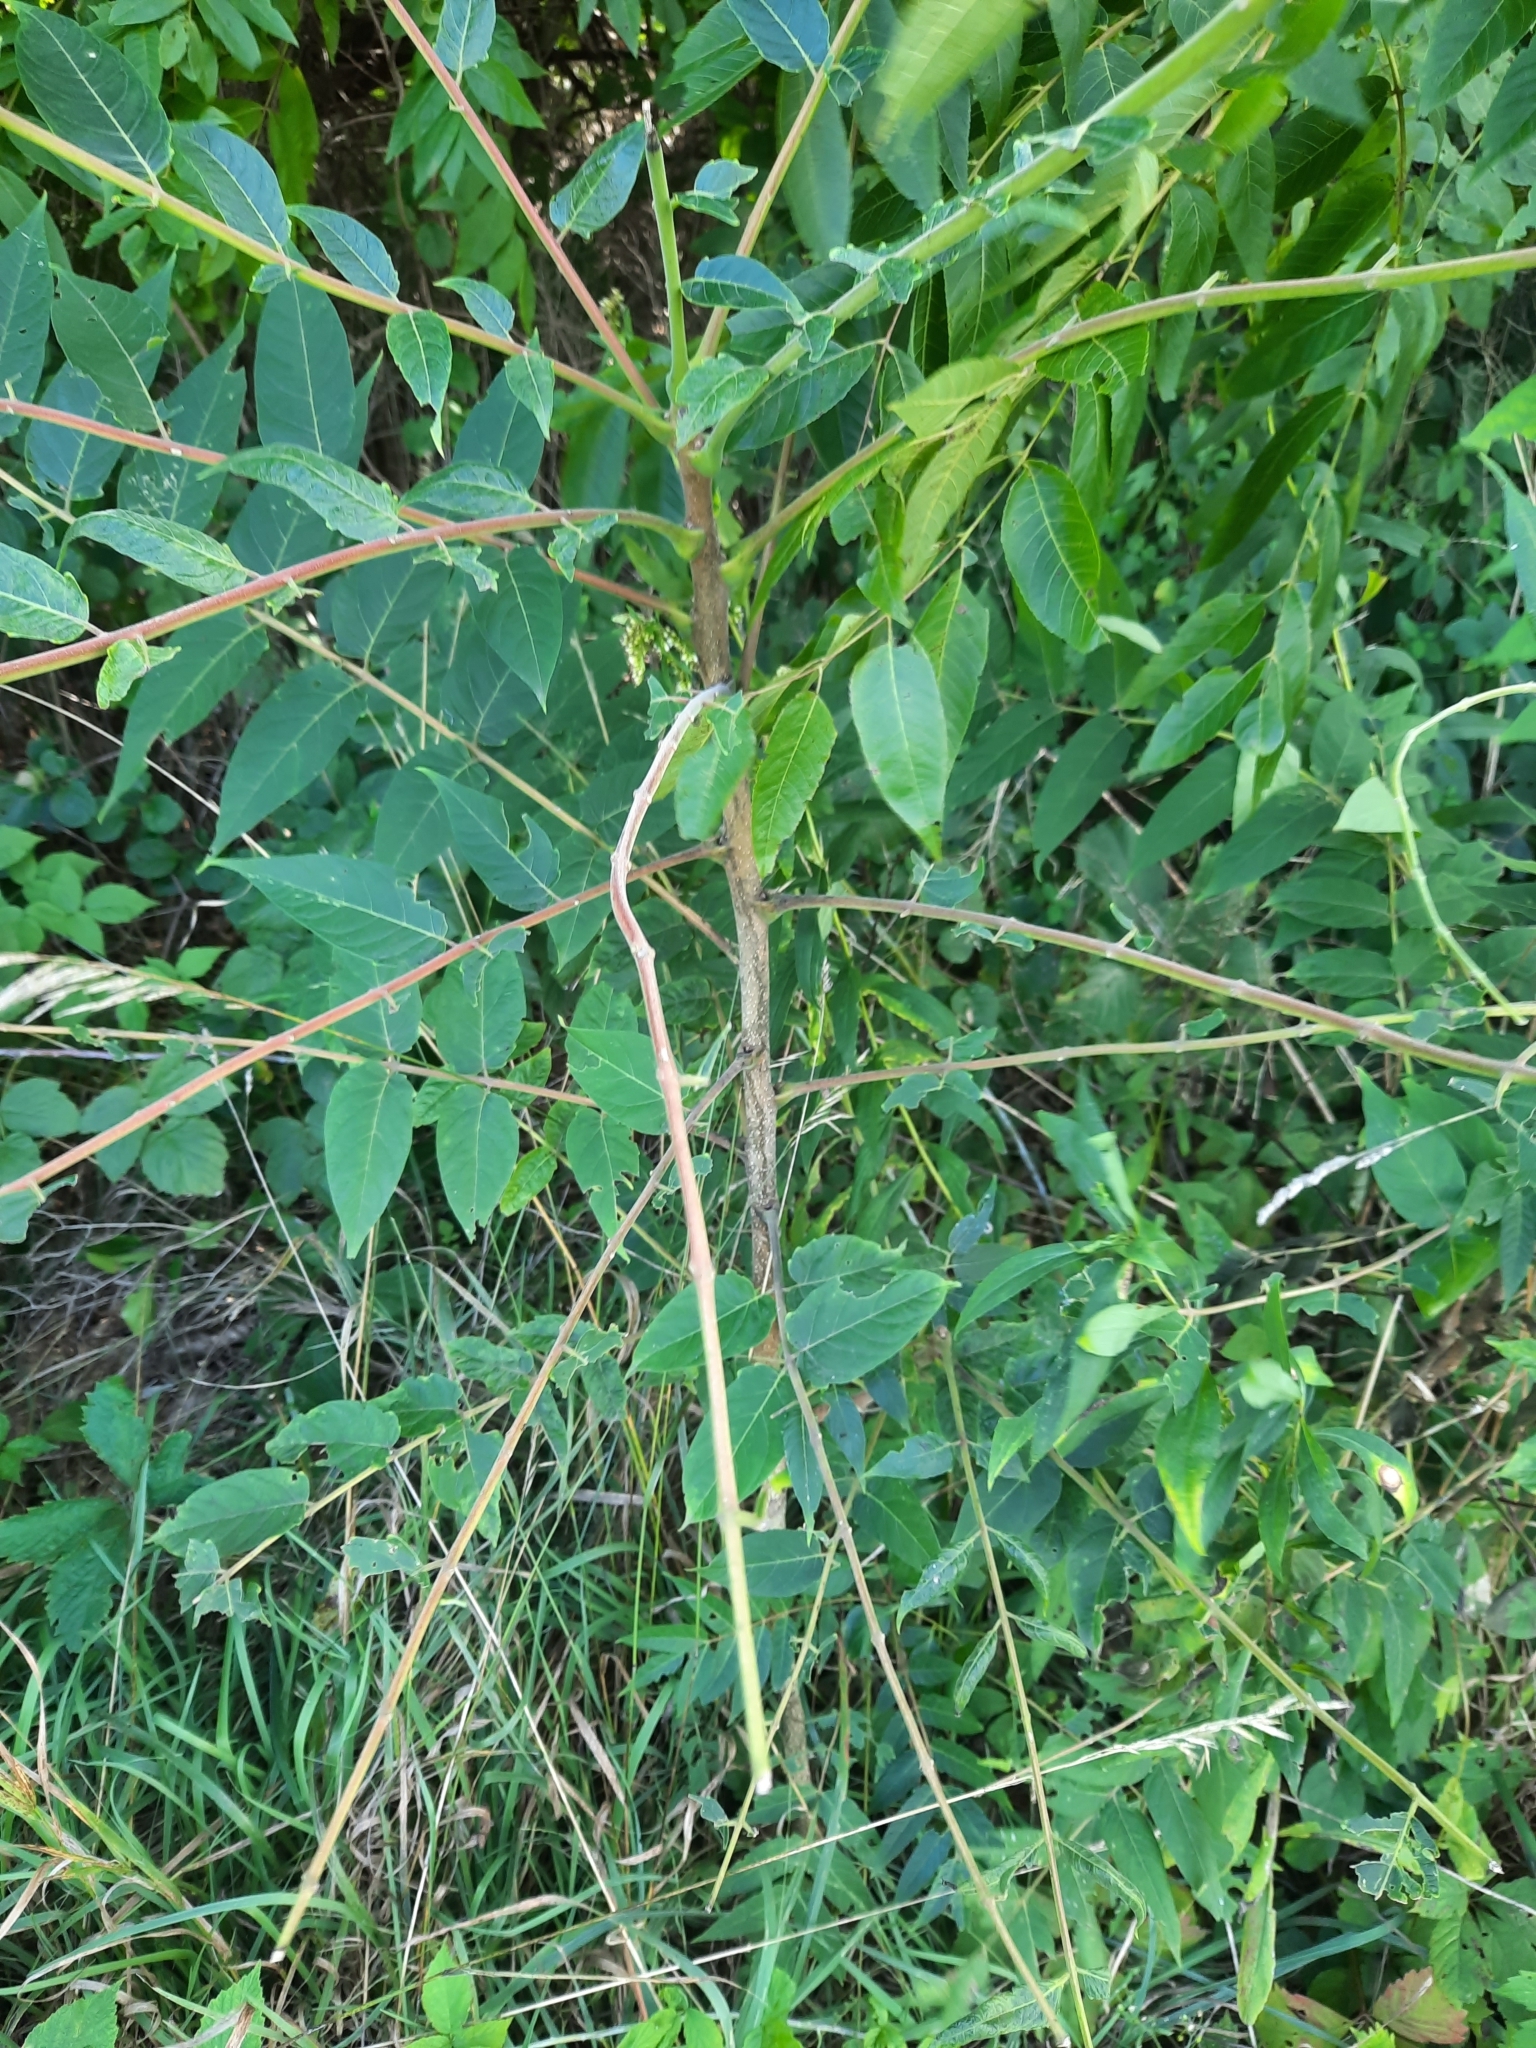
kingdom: Plantae
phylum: Tracheophyta
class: Magnoliopsida
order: Sapindales
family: Simaroubaceae
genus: Ailanthus
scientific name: Ailanthus altissima
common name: Tree-of-heaven
